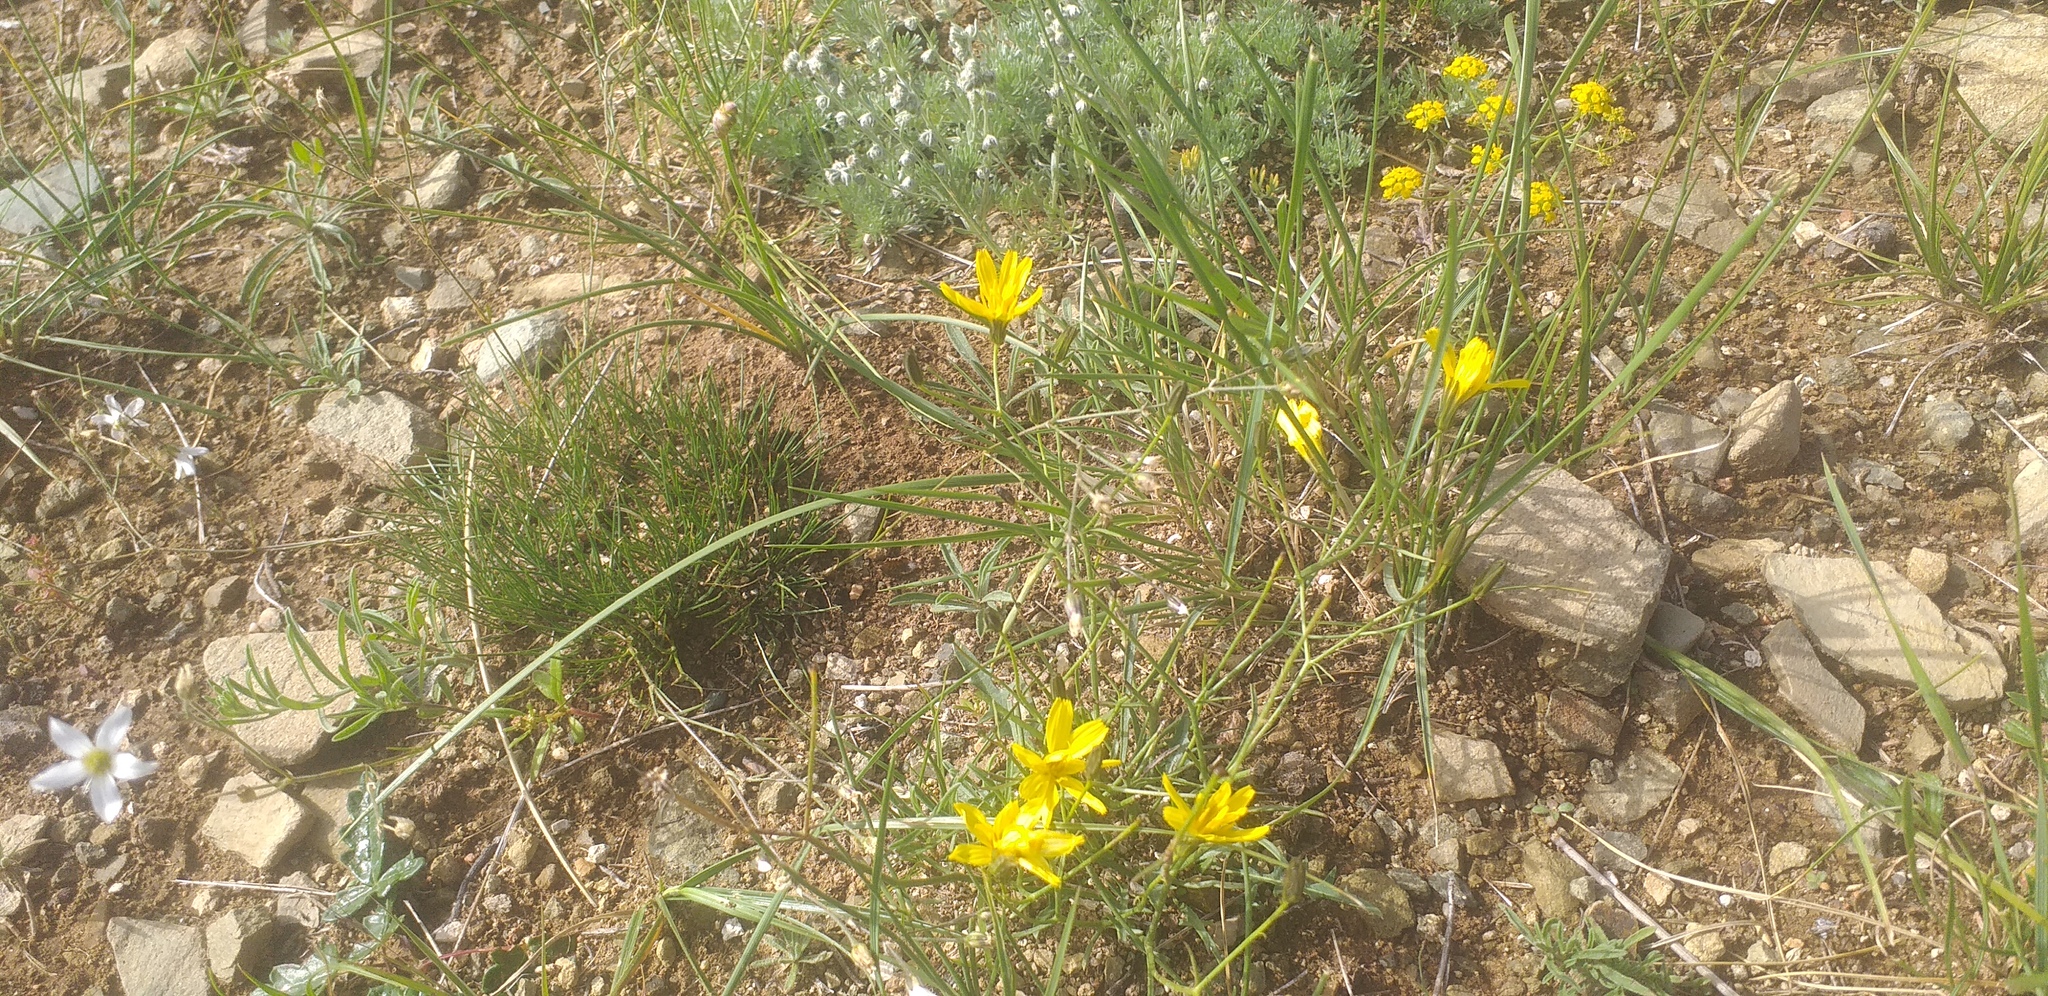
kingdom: Plantae
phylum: Tracheophyta
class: Magnoliopsida
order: Asterales
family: Asteraceae
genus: Crepidiastrum
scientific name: Crepidiastrum tenuifolium
